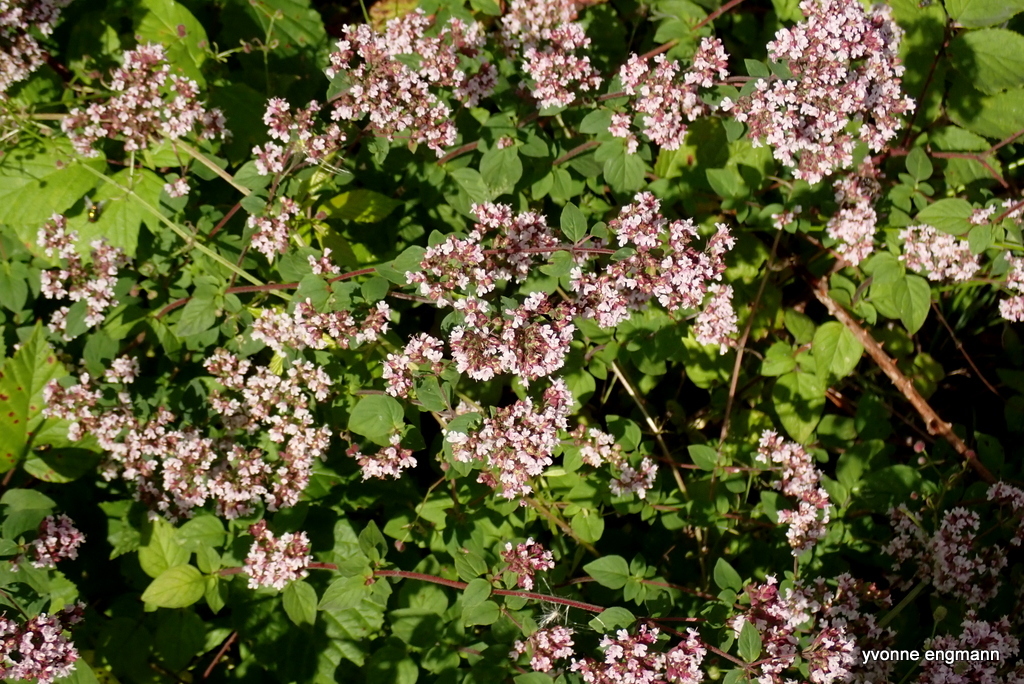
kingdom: Plantae
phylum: Tracheophyta
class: Magnoliopsida
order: Lamiales
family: Lamiaceae
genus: Origanum
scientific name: Origanum vulgare
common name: Wild marjoram
